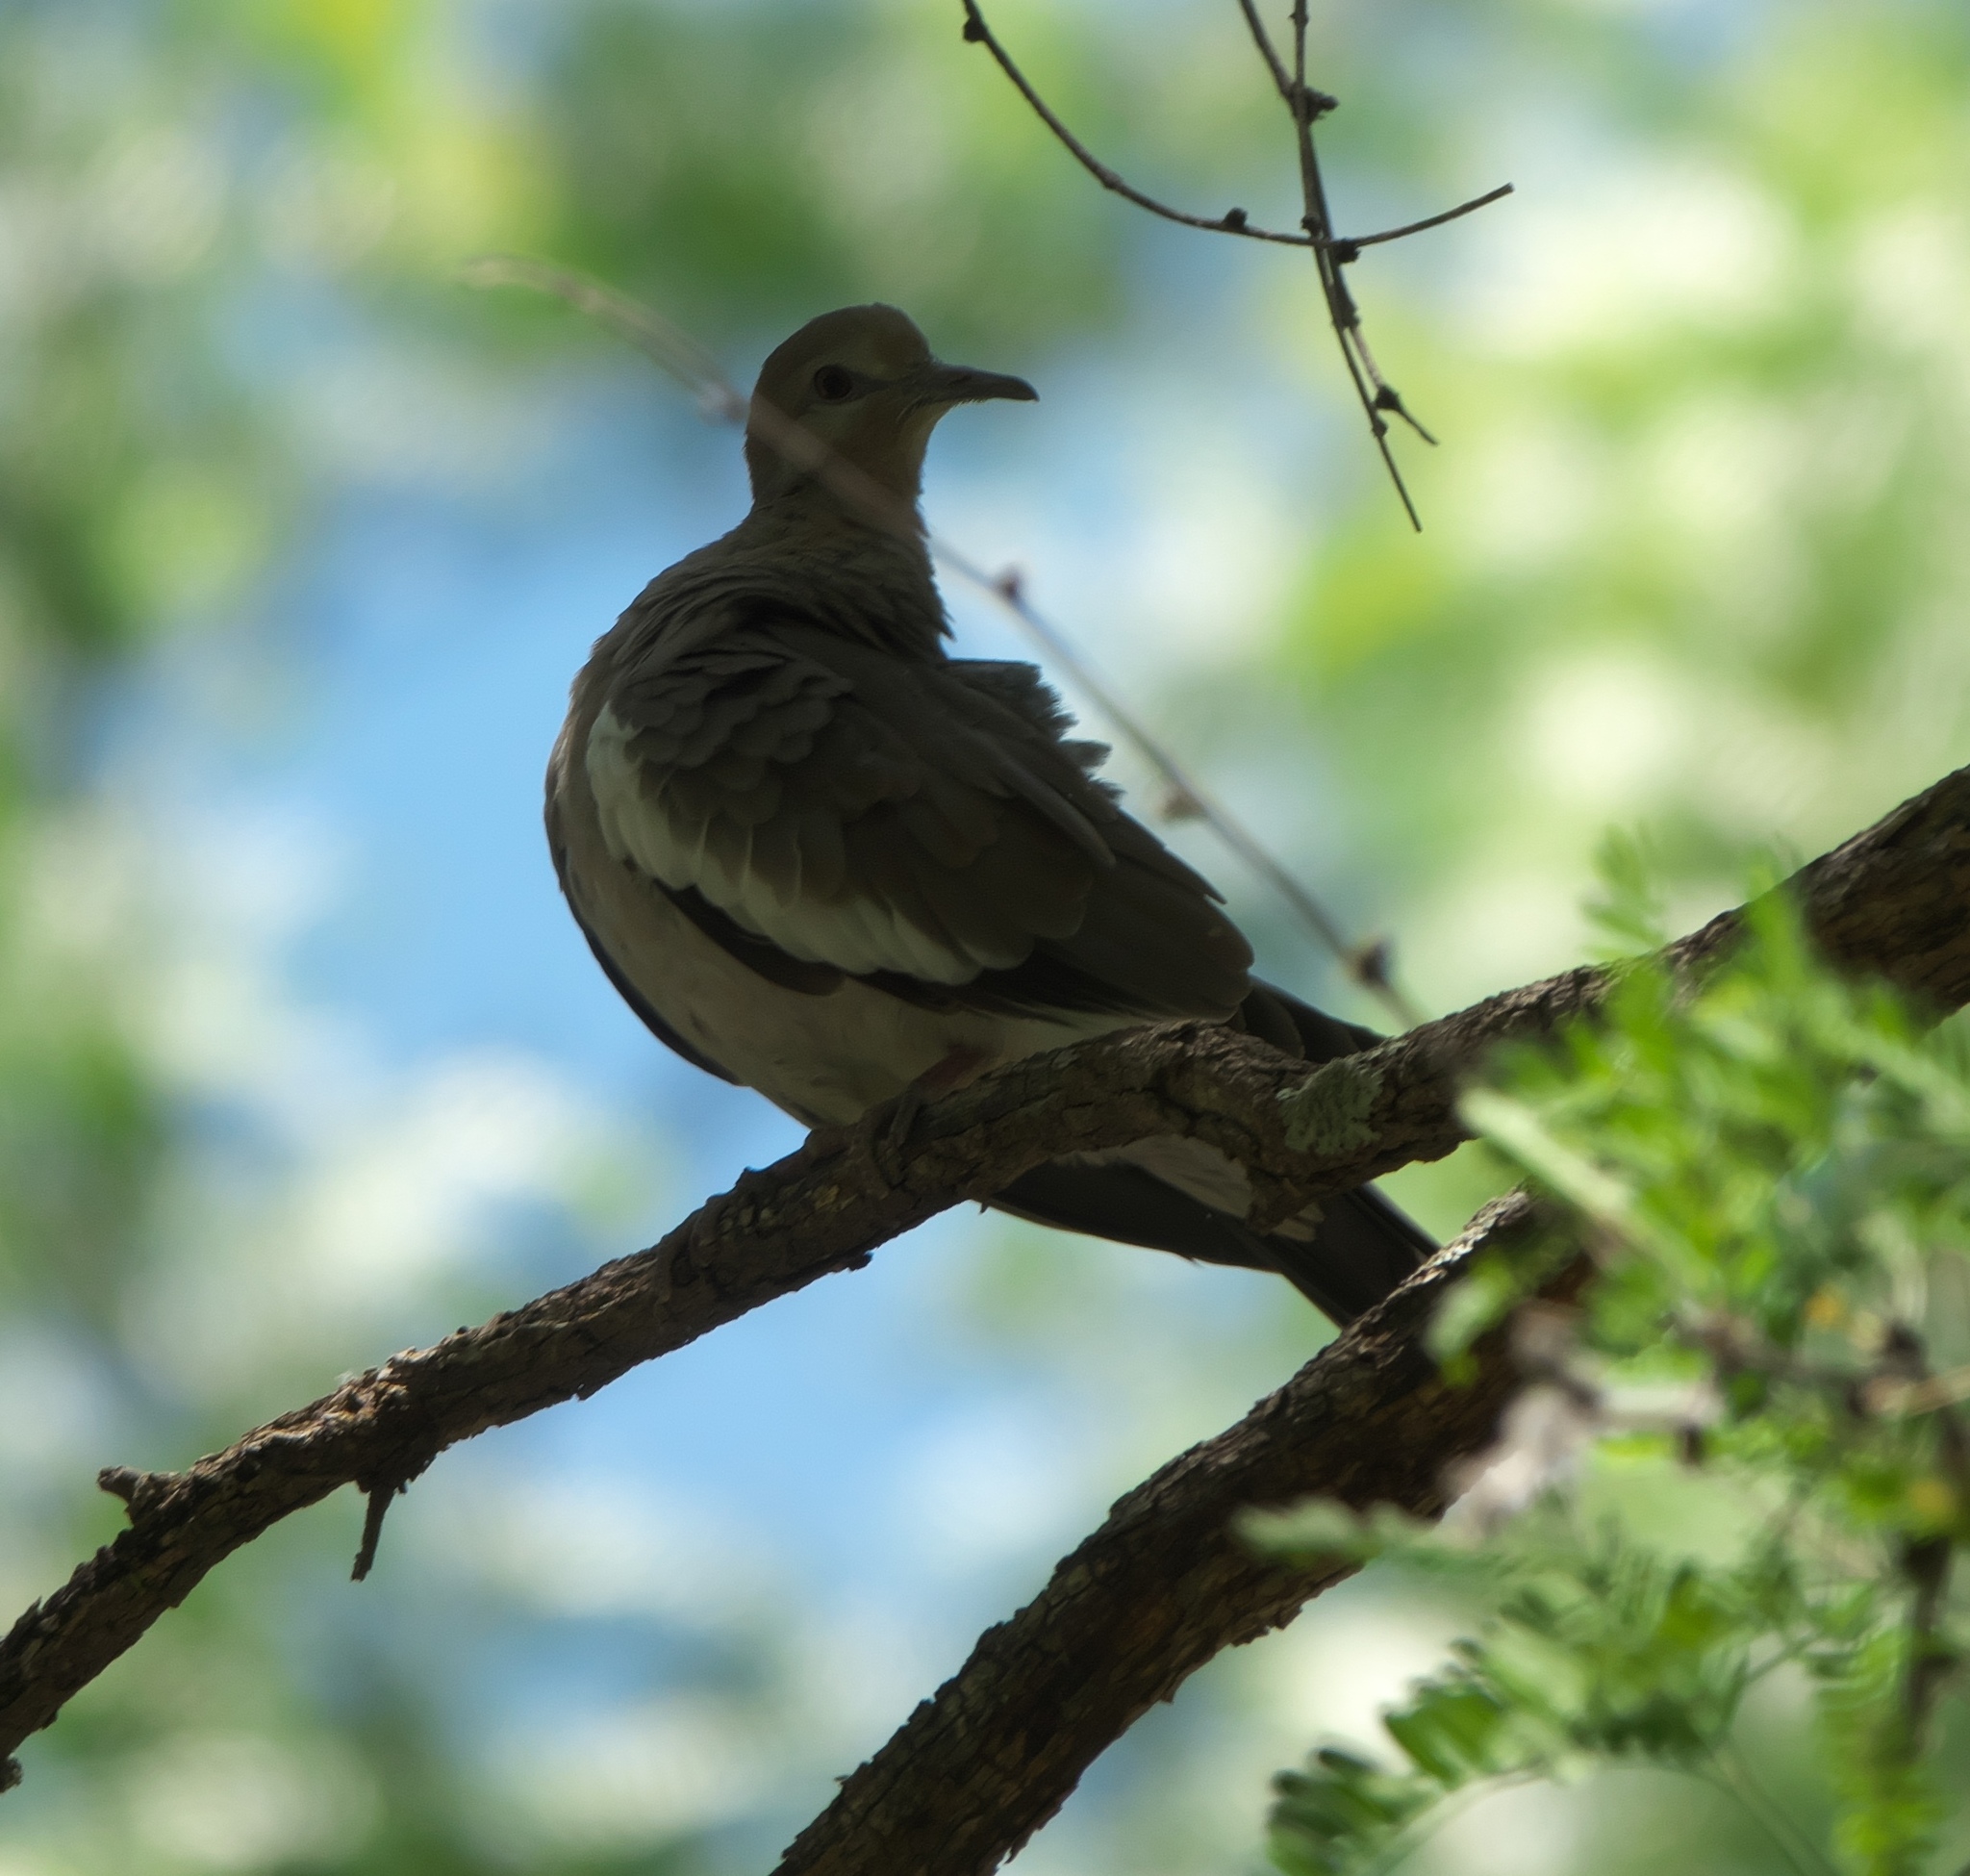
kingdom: Animalia
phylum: Chordata
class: Aves
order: Columbiformes
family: Columbidae
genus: Zenaida
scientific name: Zenaida asiatica
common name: White-winged dove
